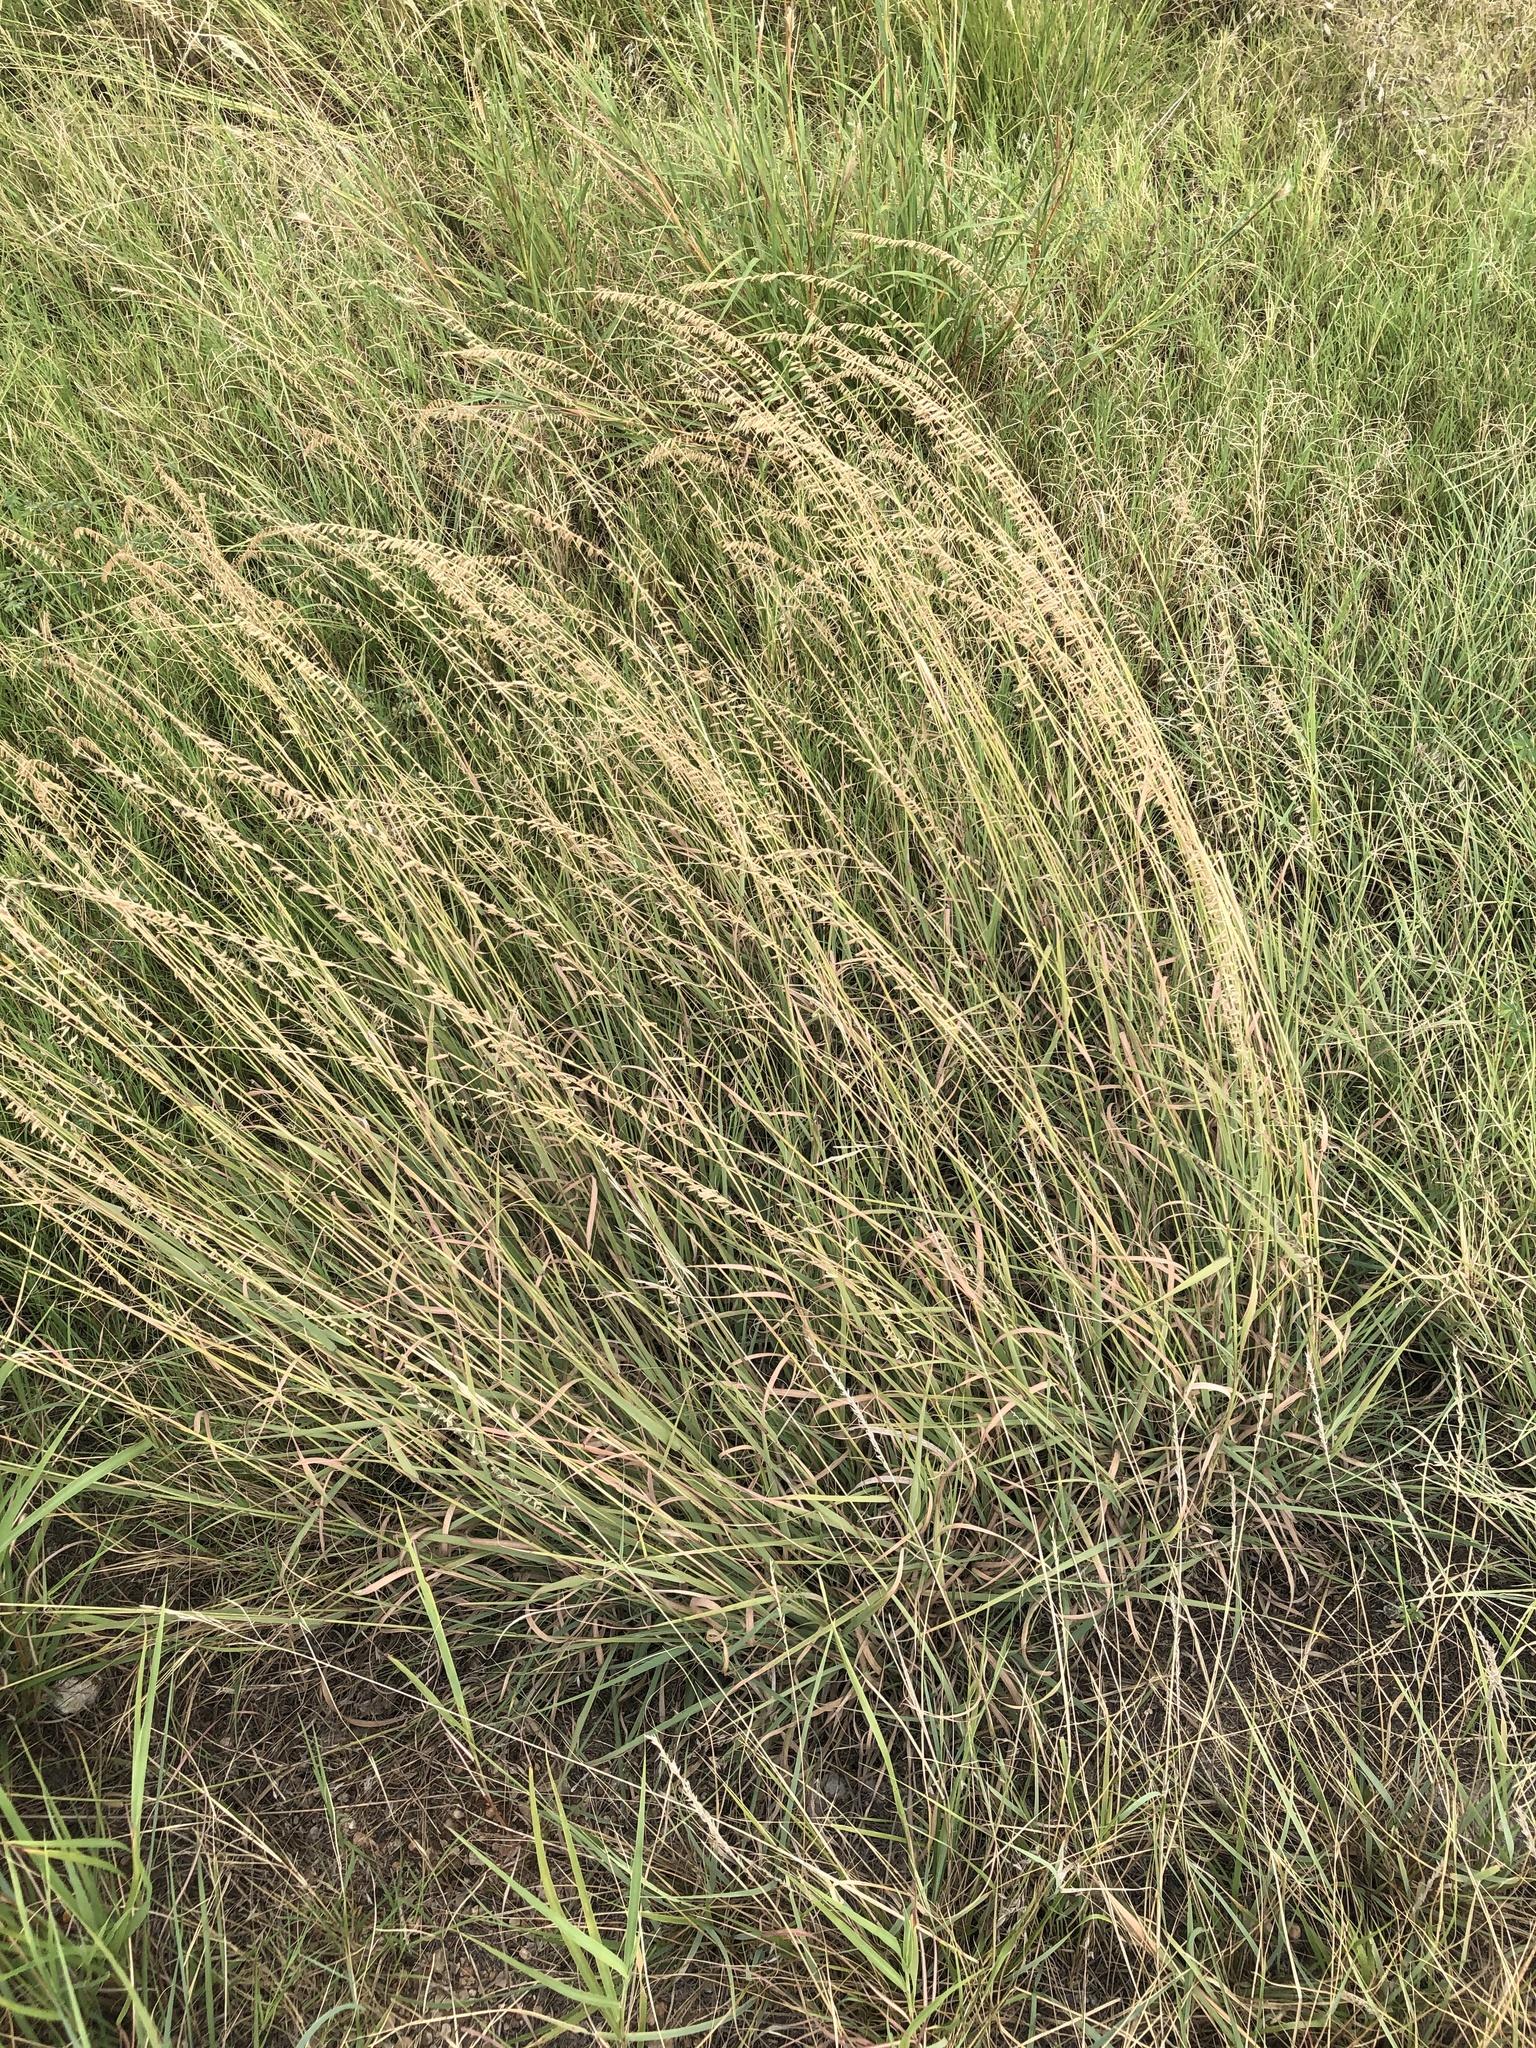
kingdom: Plantae
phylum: Tracheophyta
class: Liliopsida
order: Poales
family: Poaceae
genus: Bouteloua
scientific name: Bouteloua curtipendula
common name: Side-oats grama
